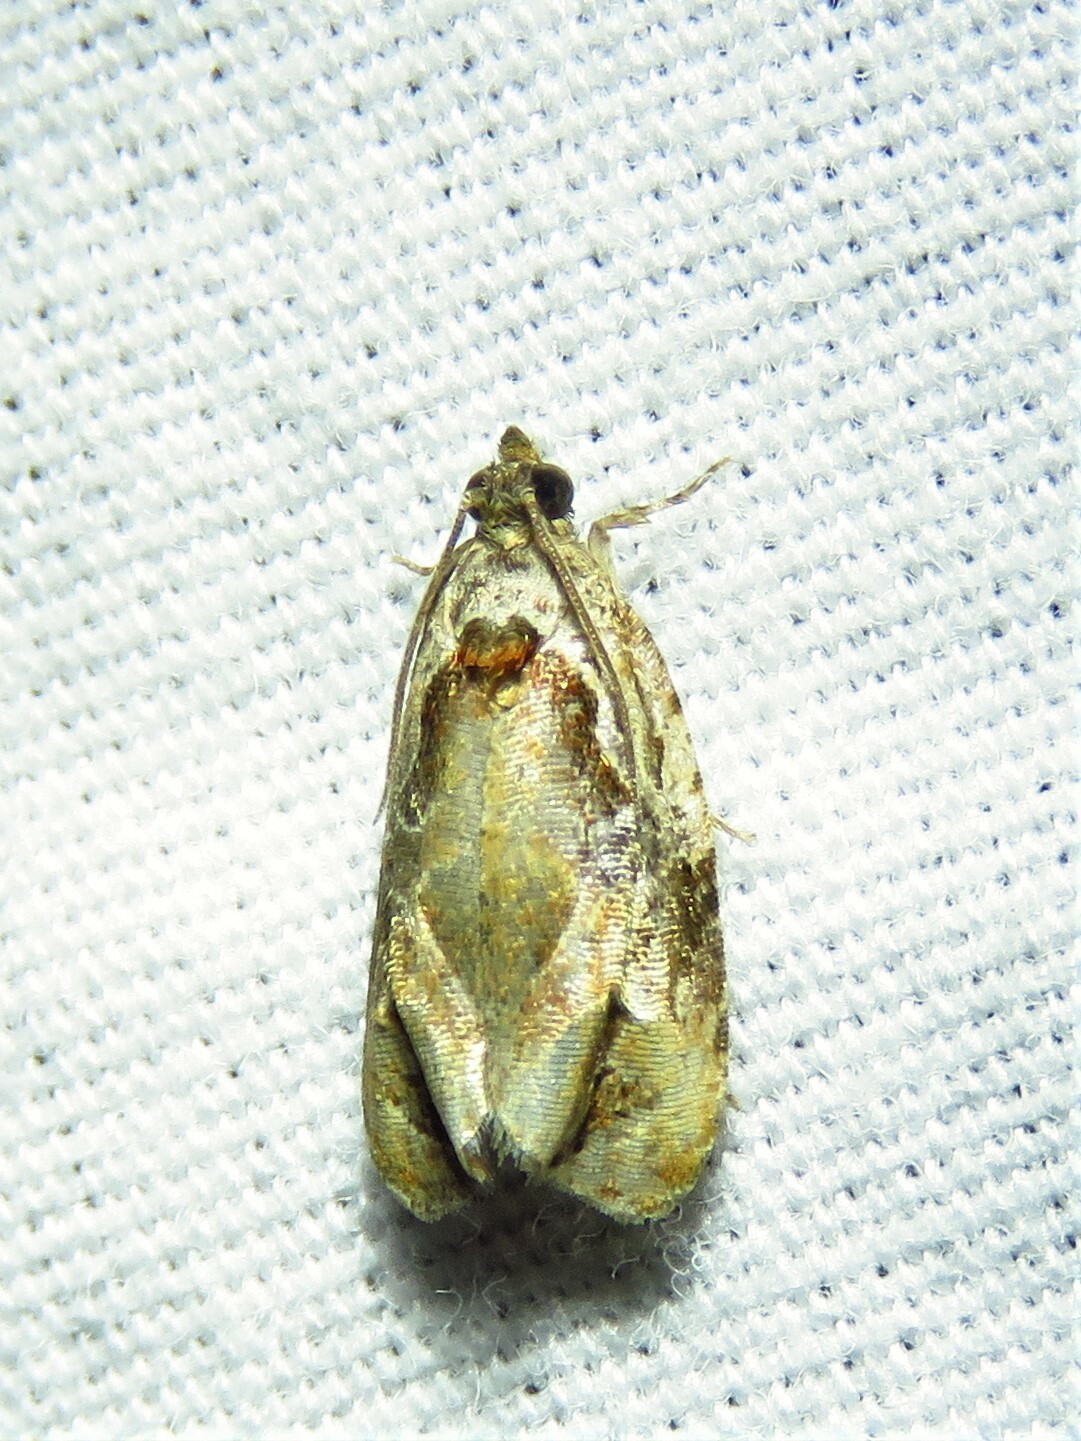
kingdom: Animalia
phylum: Arthropoda
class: Insecta
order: Lepidoptera
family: Tortricidae
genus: Zomaria
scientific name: Zomaria interruptolineana
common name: Broken-lined zomaria moth
